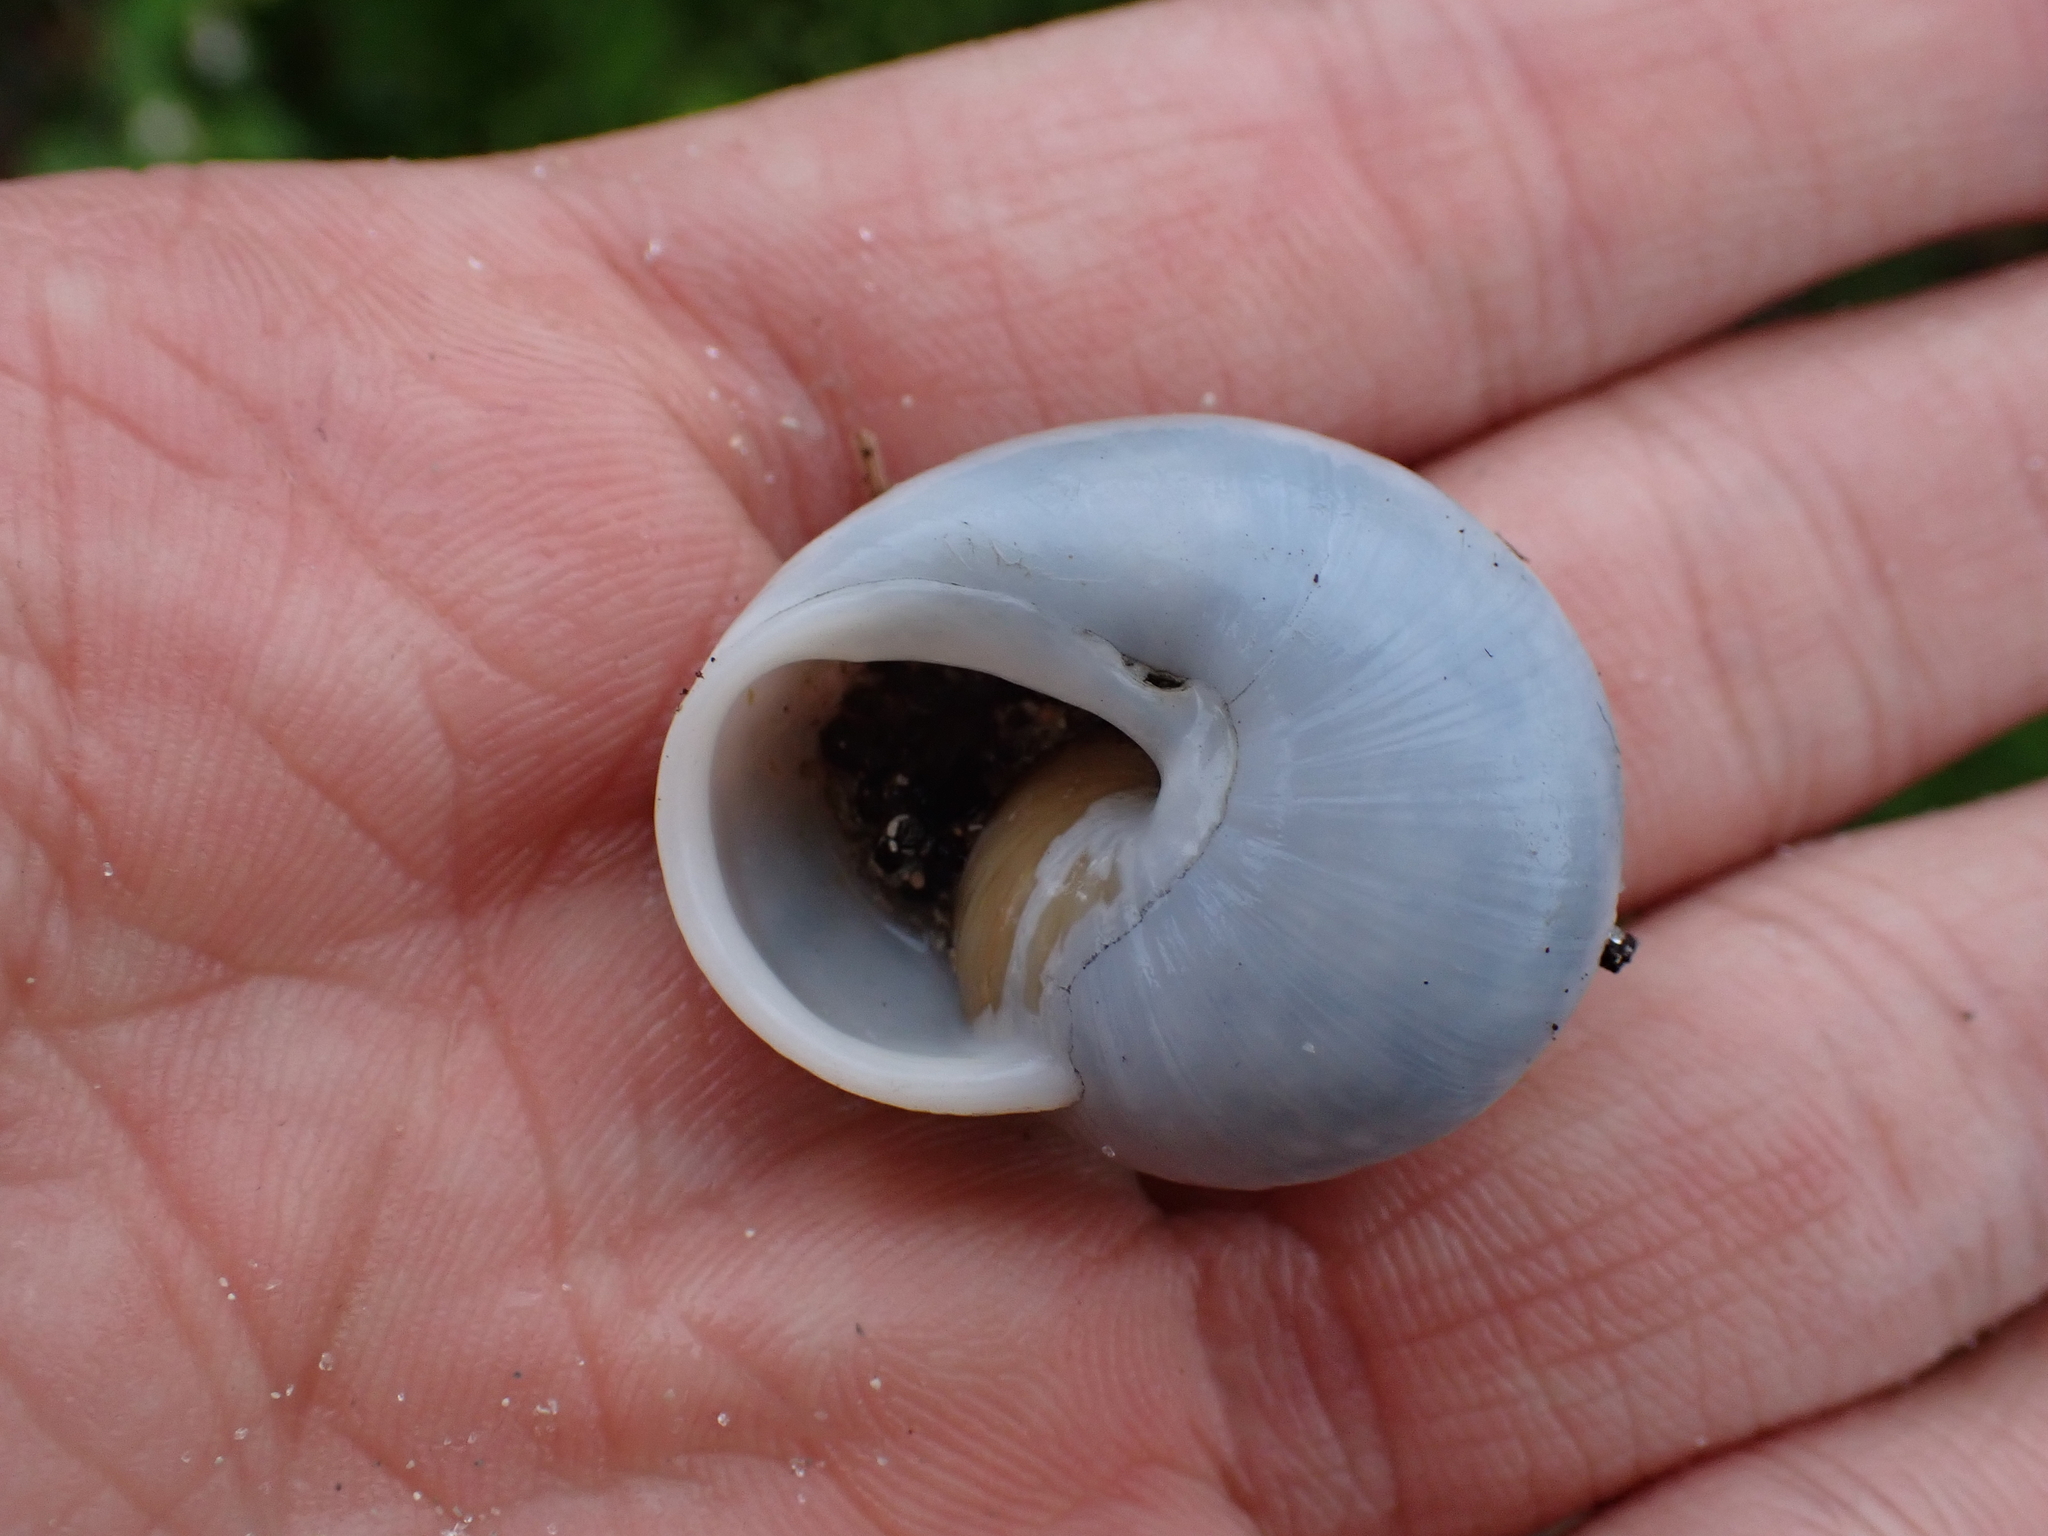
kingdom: Animalia
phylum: Mollusca
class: Gastropoda
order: Stylommatophora
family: Zachrysiidae
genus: Zachrysia
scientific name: Zachrysia provisoria
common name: Garden zachrysia
